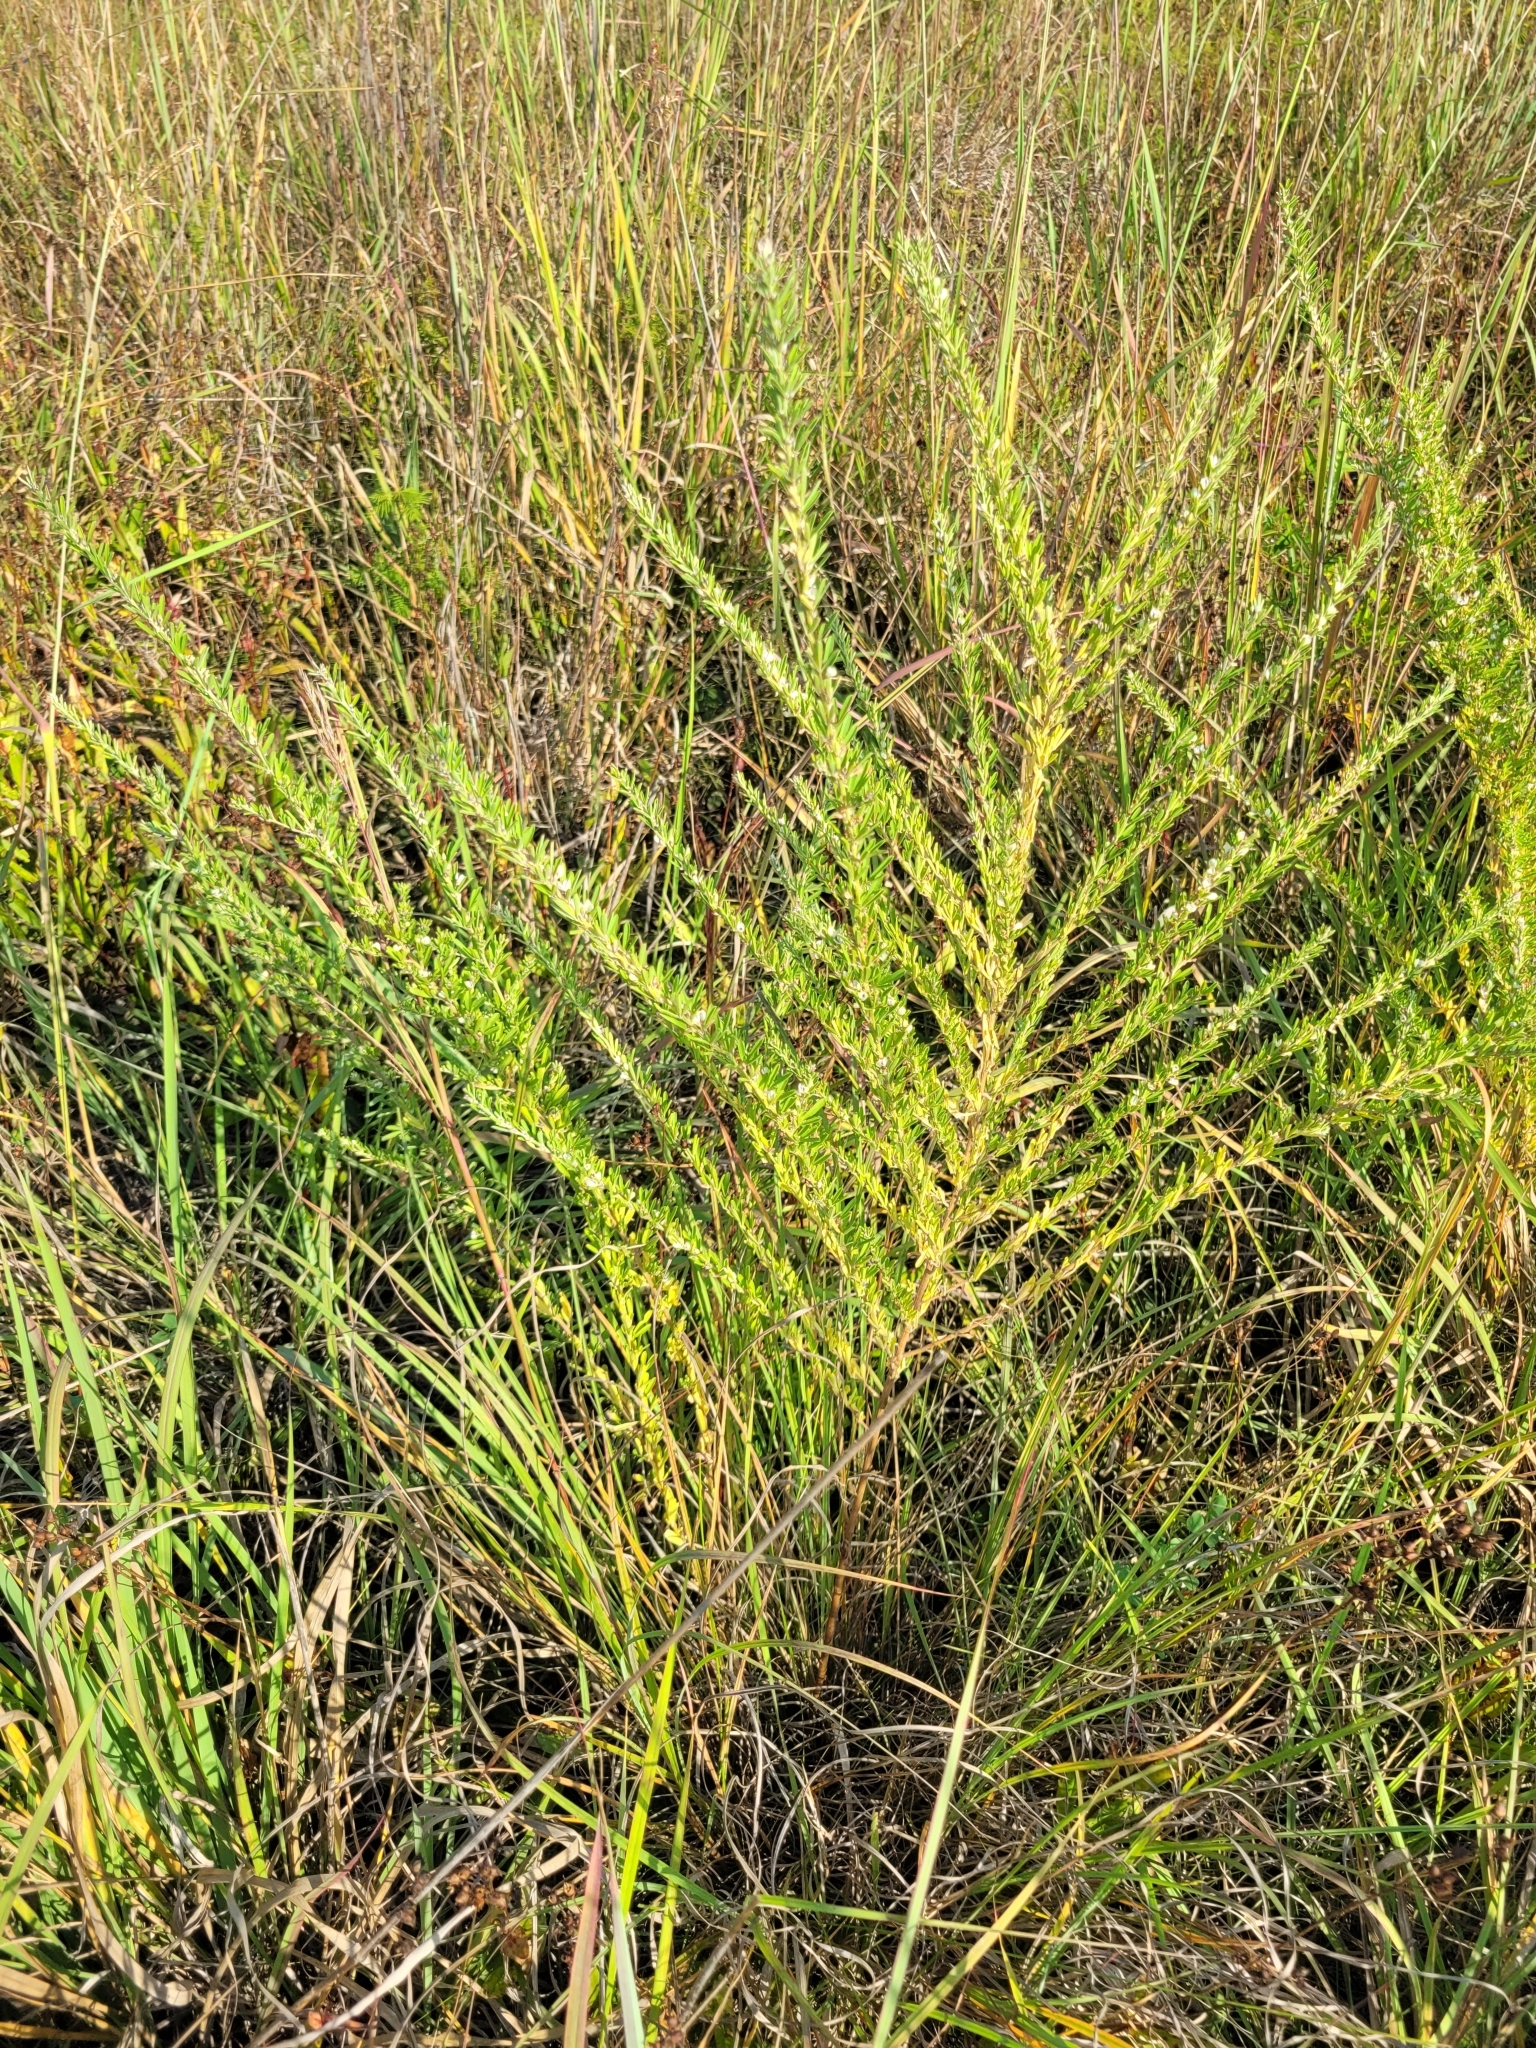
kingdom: Plantae
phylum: Tracheophyta
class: Magnoliopsida
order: Fabales
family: Fabaceae
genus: Lespedeza
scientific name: Lespedeza cuneata
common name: Chinese bush-clover
